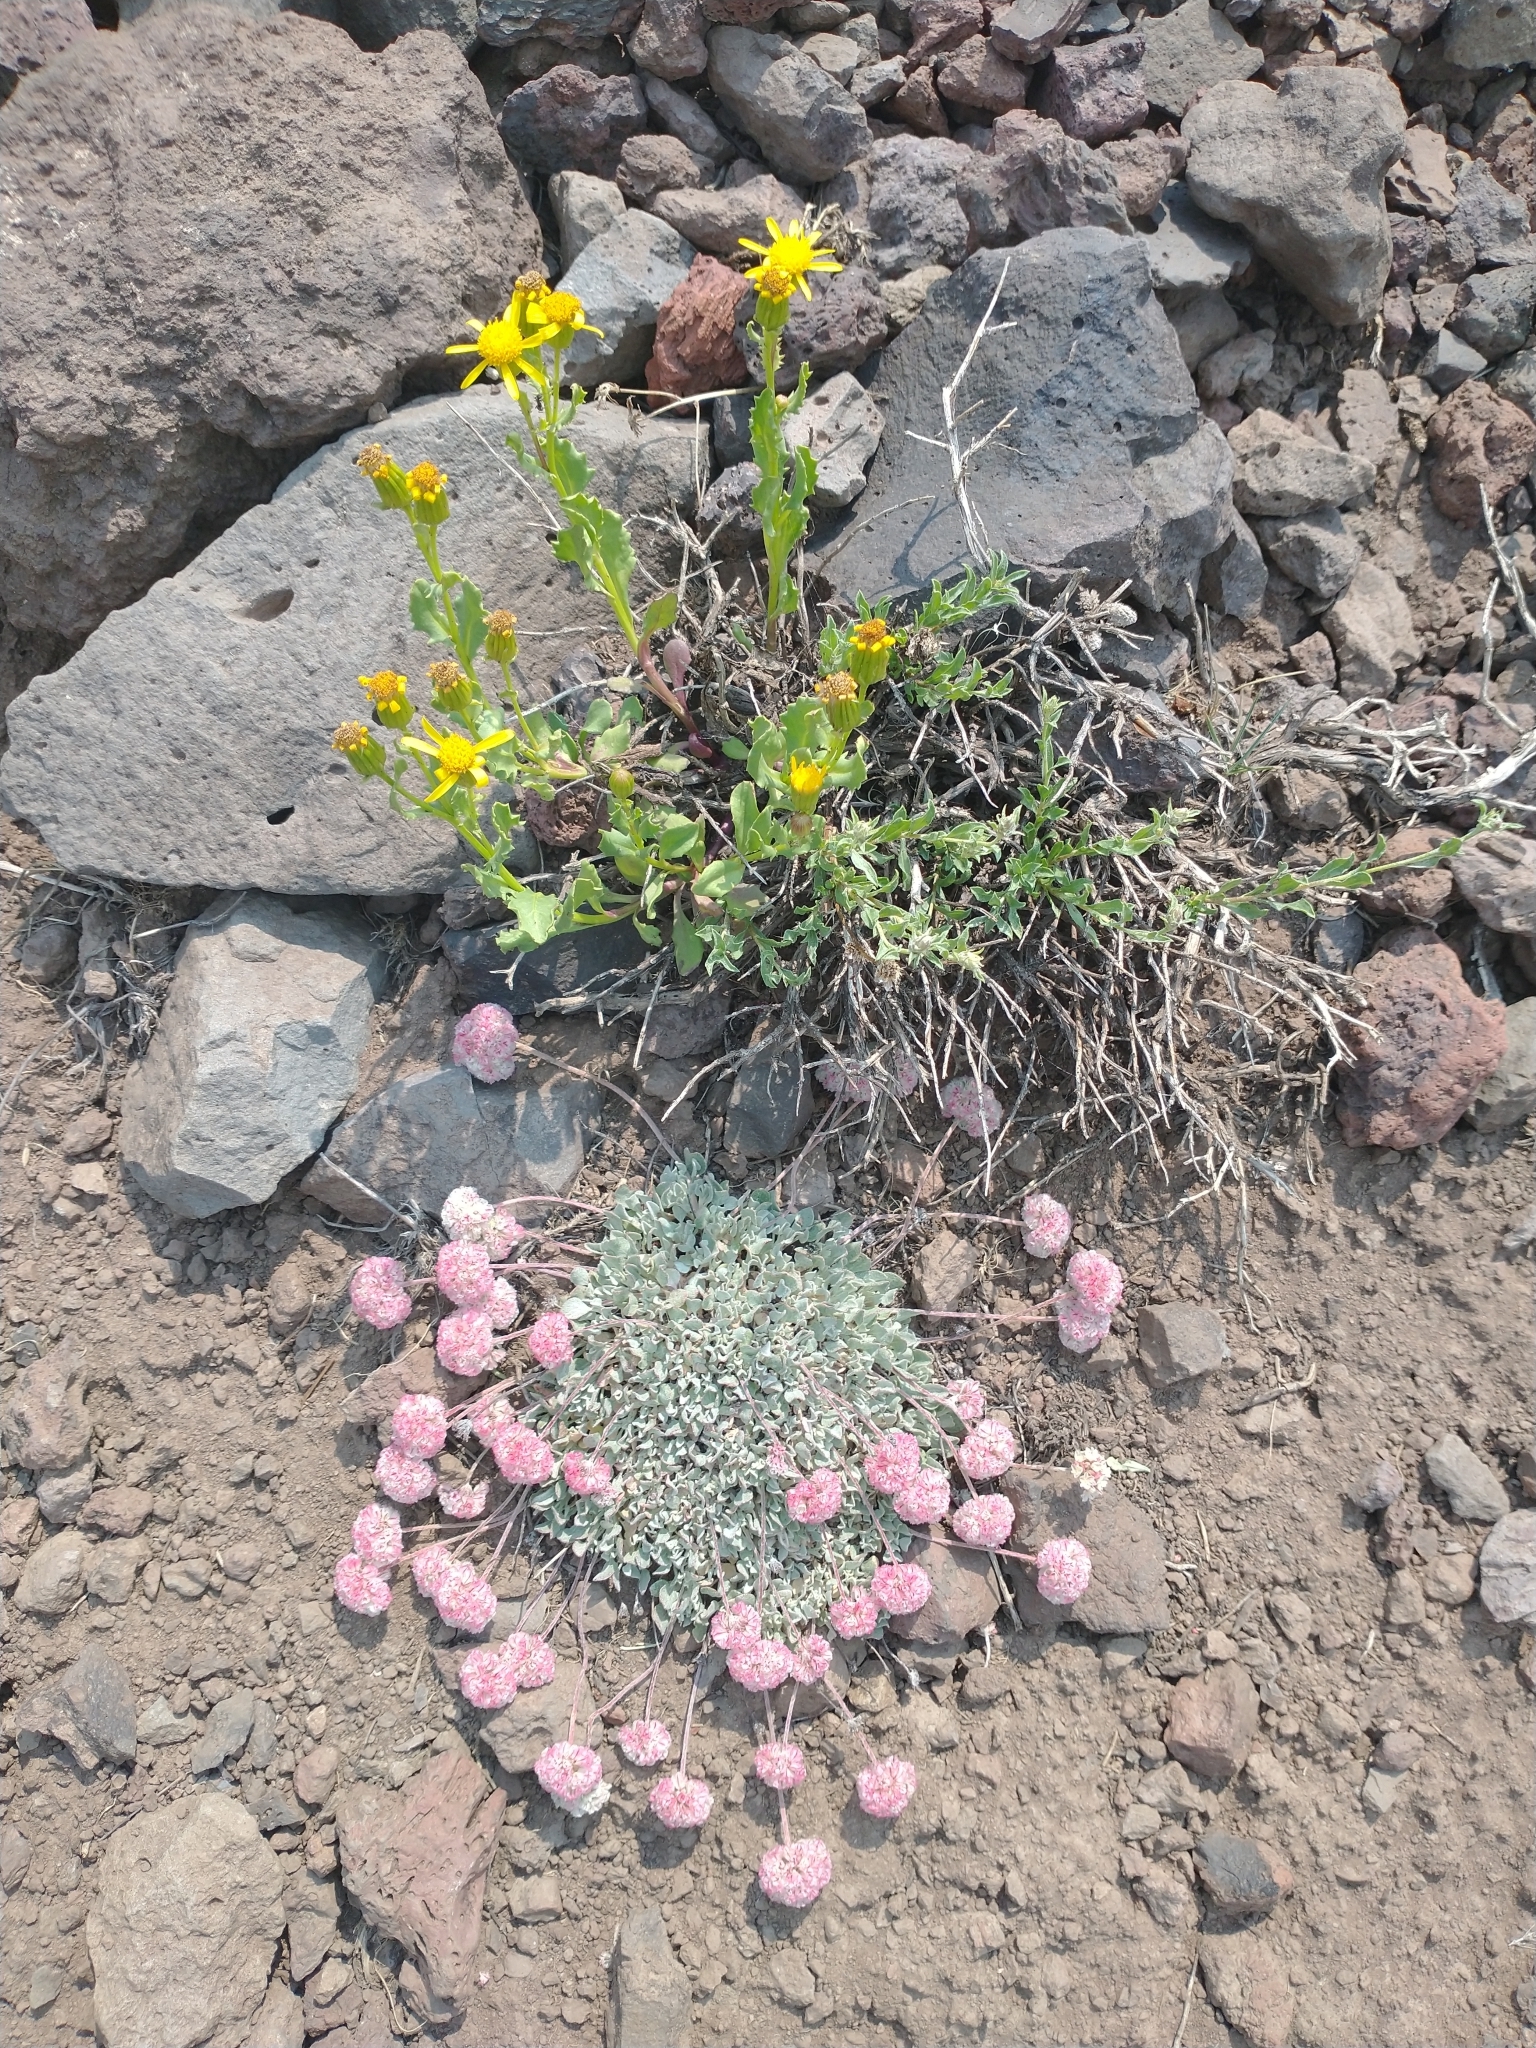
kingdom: Plantae
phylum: Tracheophyta
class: Magnoliopsida
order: Caryophyllales
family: Polygonaceae
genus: Eriogonum
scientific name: Eriogonum ovalifolium
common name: Cushion buckwheat
